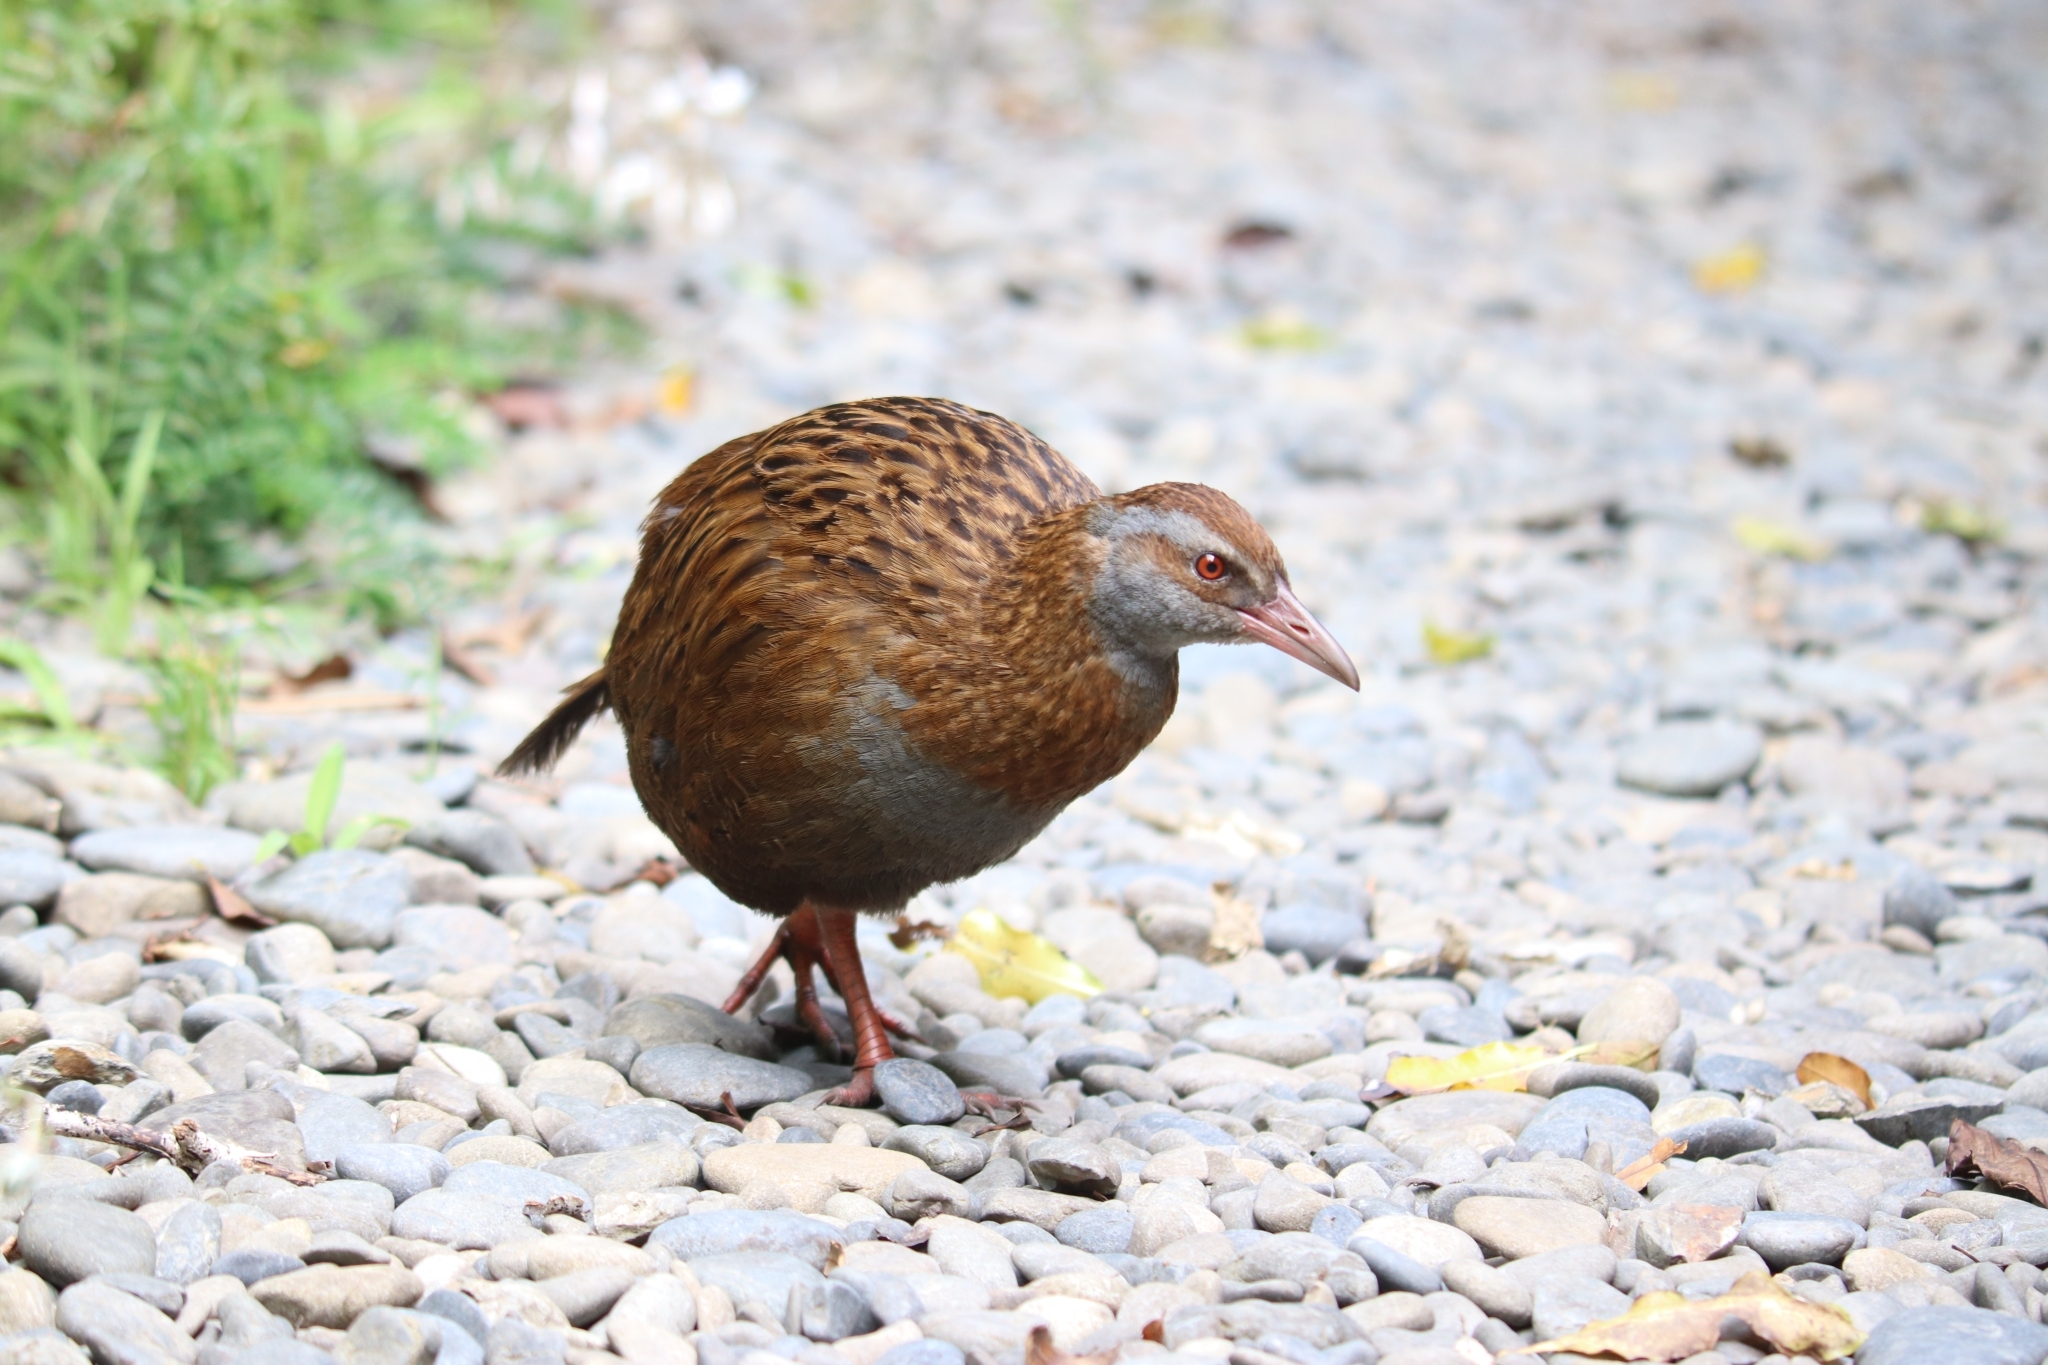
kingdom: Animalia
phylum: Chordata
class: Aves
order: Gruiformes
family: Rallidae
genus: Gallirallus
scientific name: Gallirallus australis
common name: Weka
